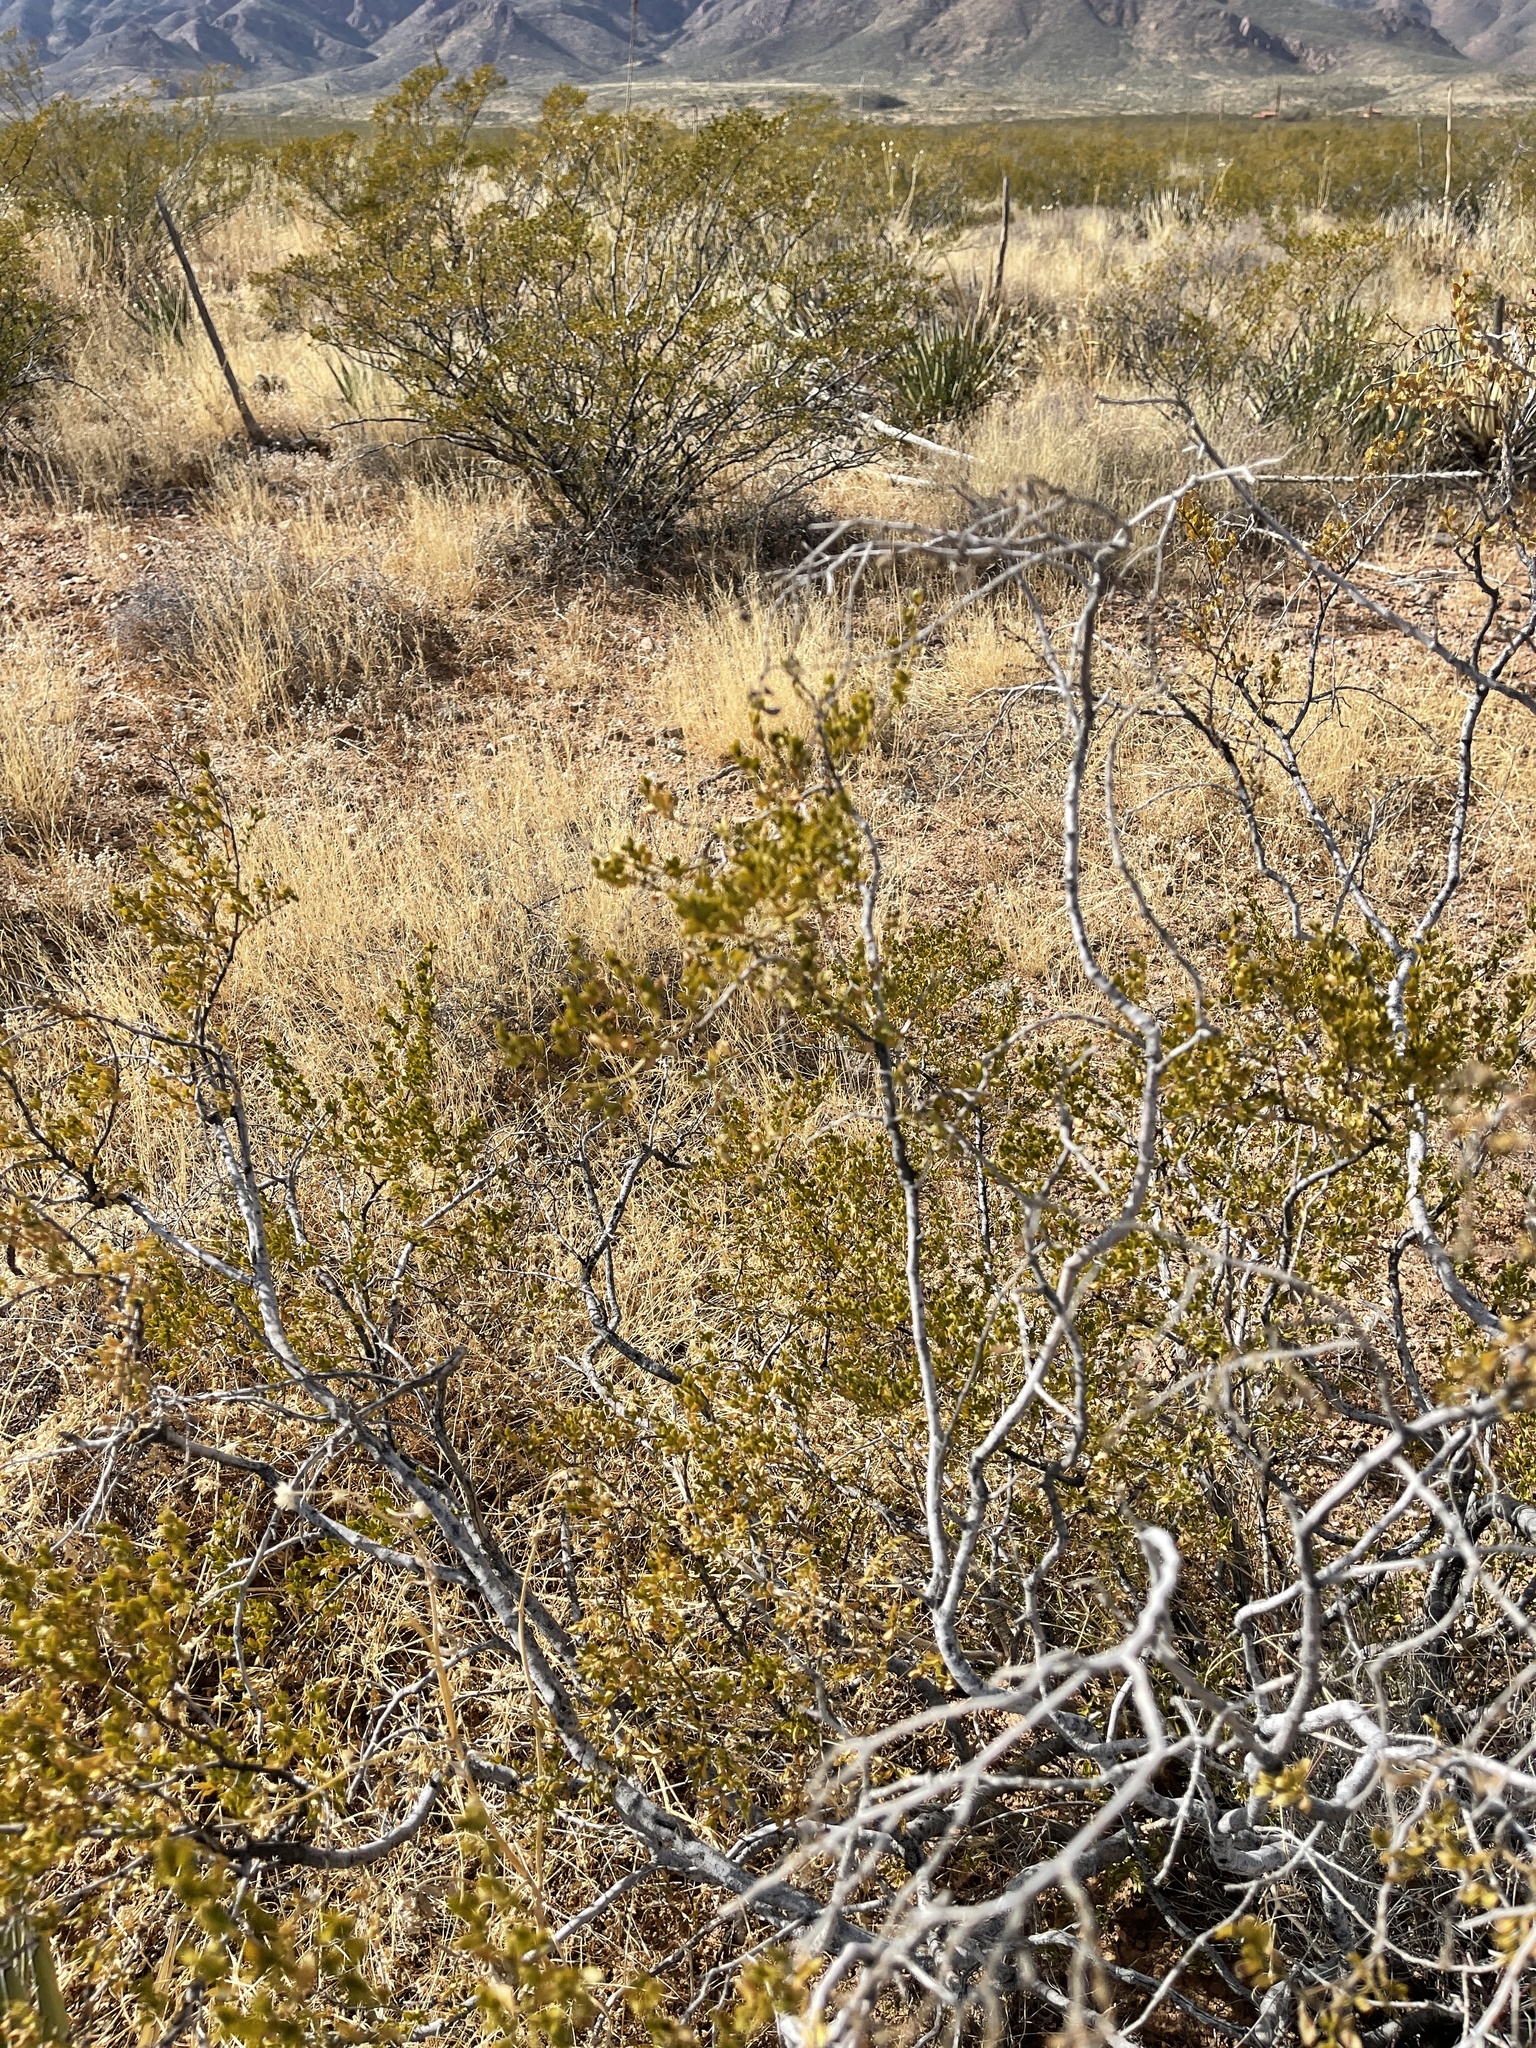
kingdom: Plantae
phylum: Tracheophyta
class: Magnoliopsida
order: Zygophyllales
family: Zygophyllaceae
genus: Larrea
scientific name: Larrea tridentata
